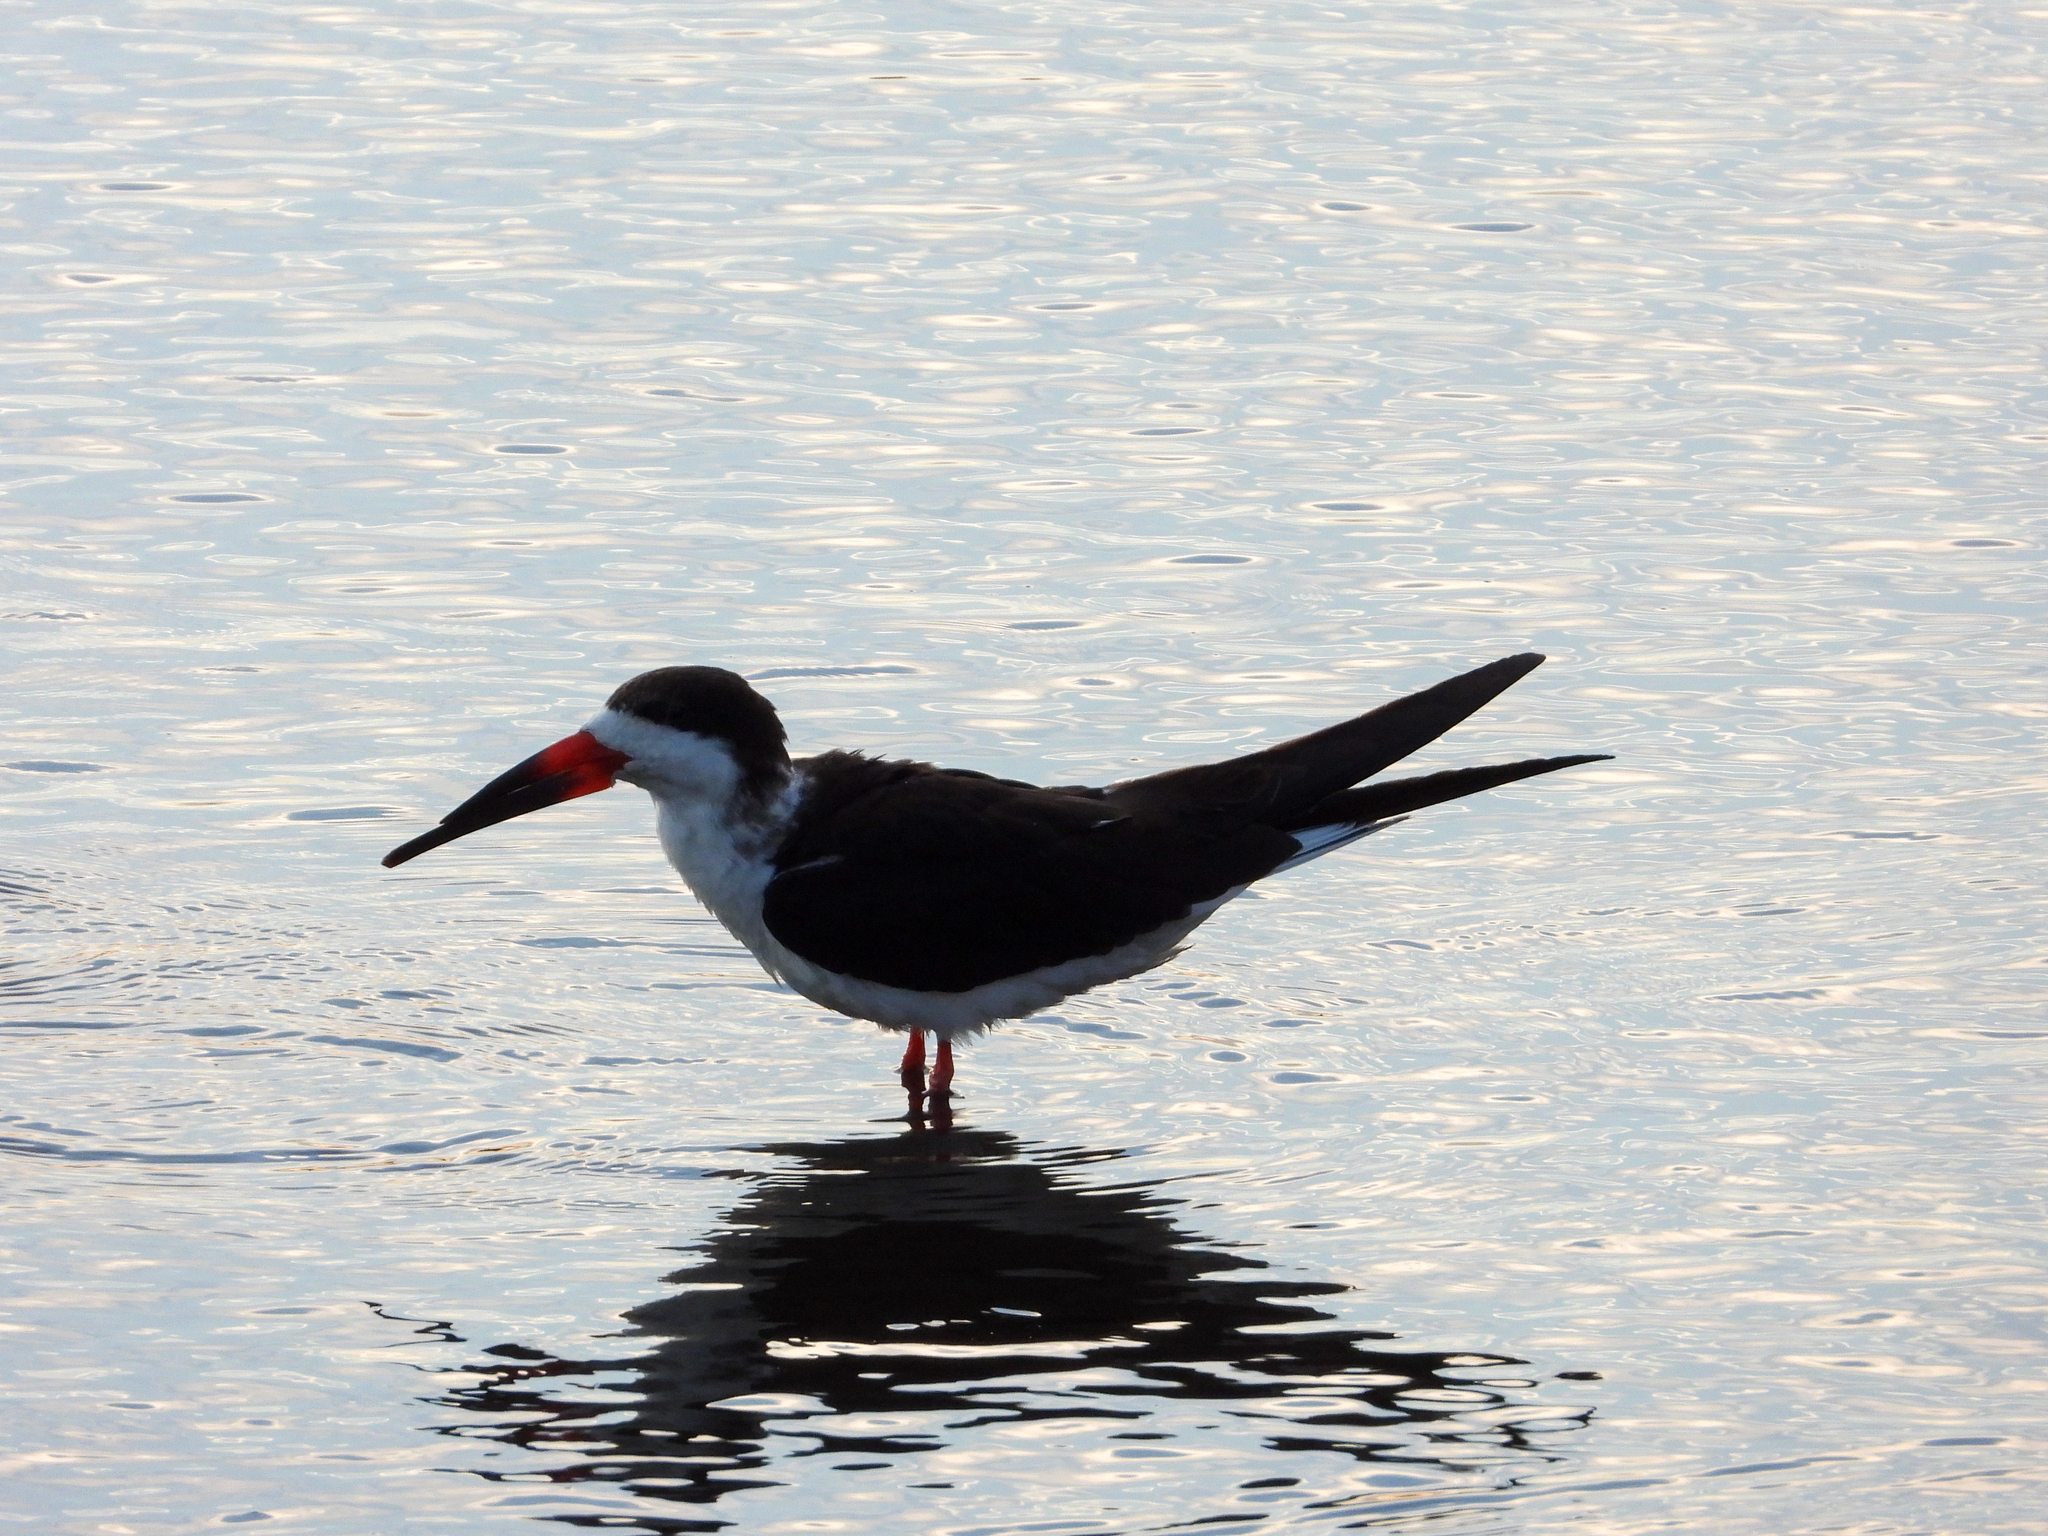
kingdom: Animalia
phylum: Chordata
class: Aves
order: Charadriiformes
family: Laridae
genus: Rynchops
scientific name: Rynchops niger
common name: Black skimmer
